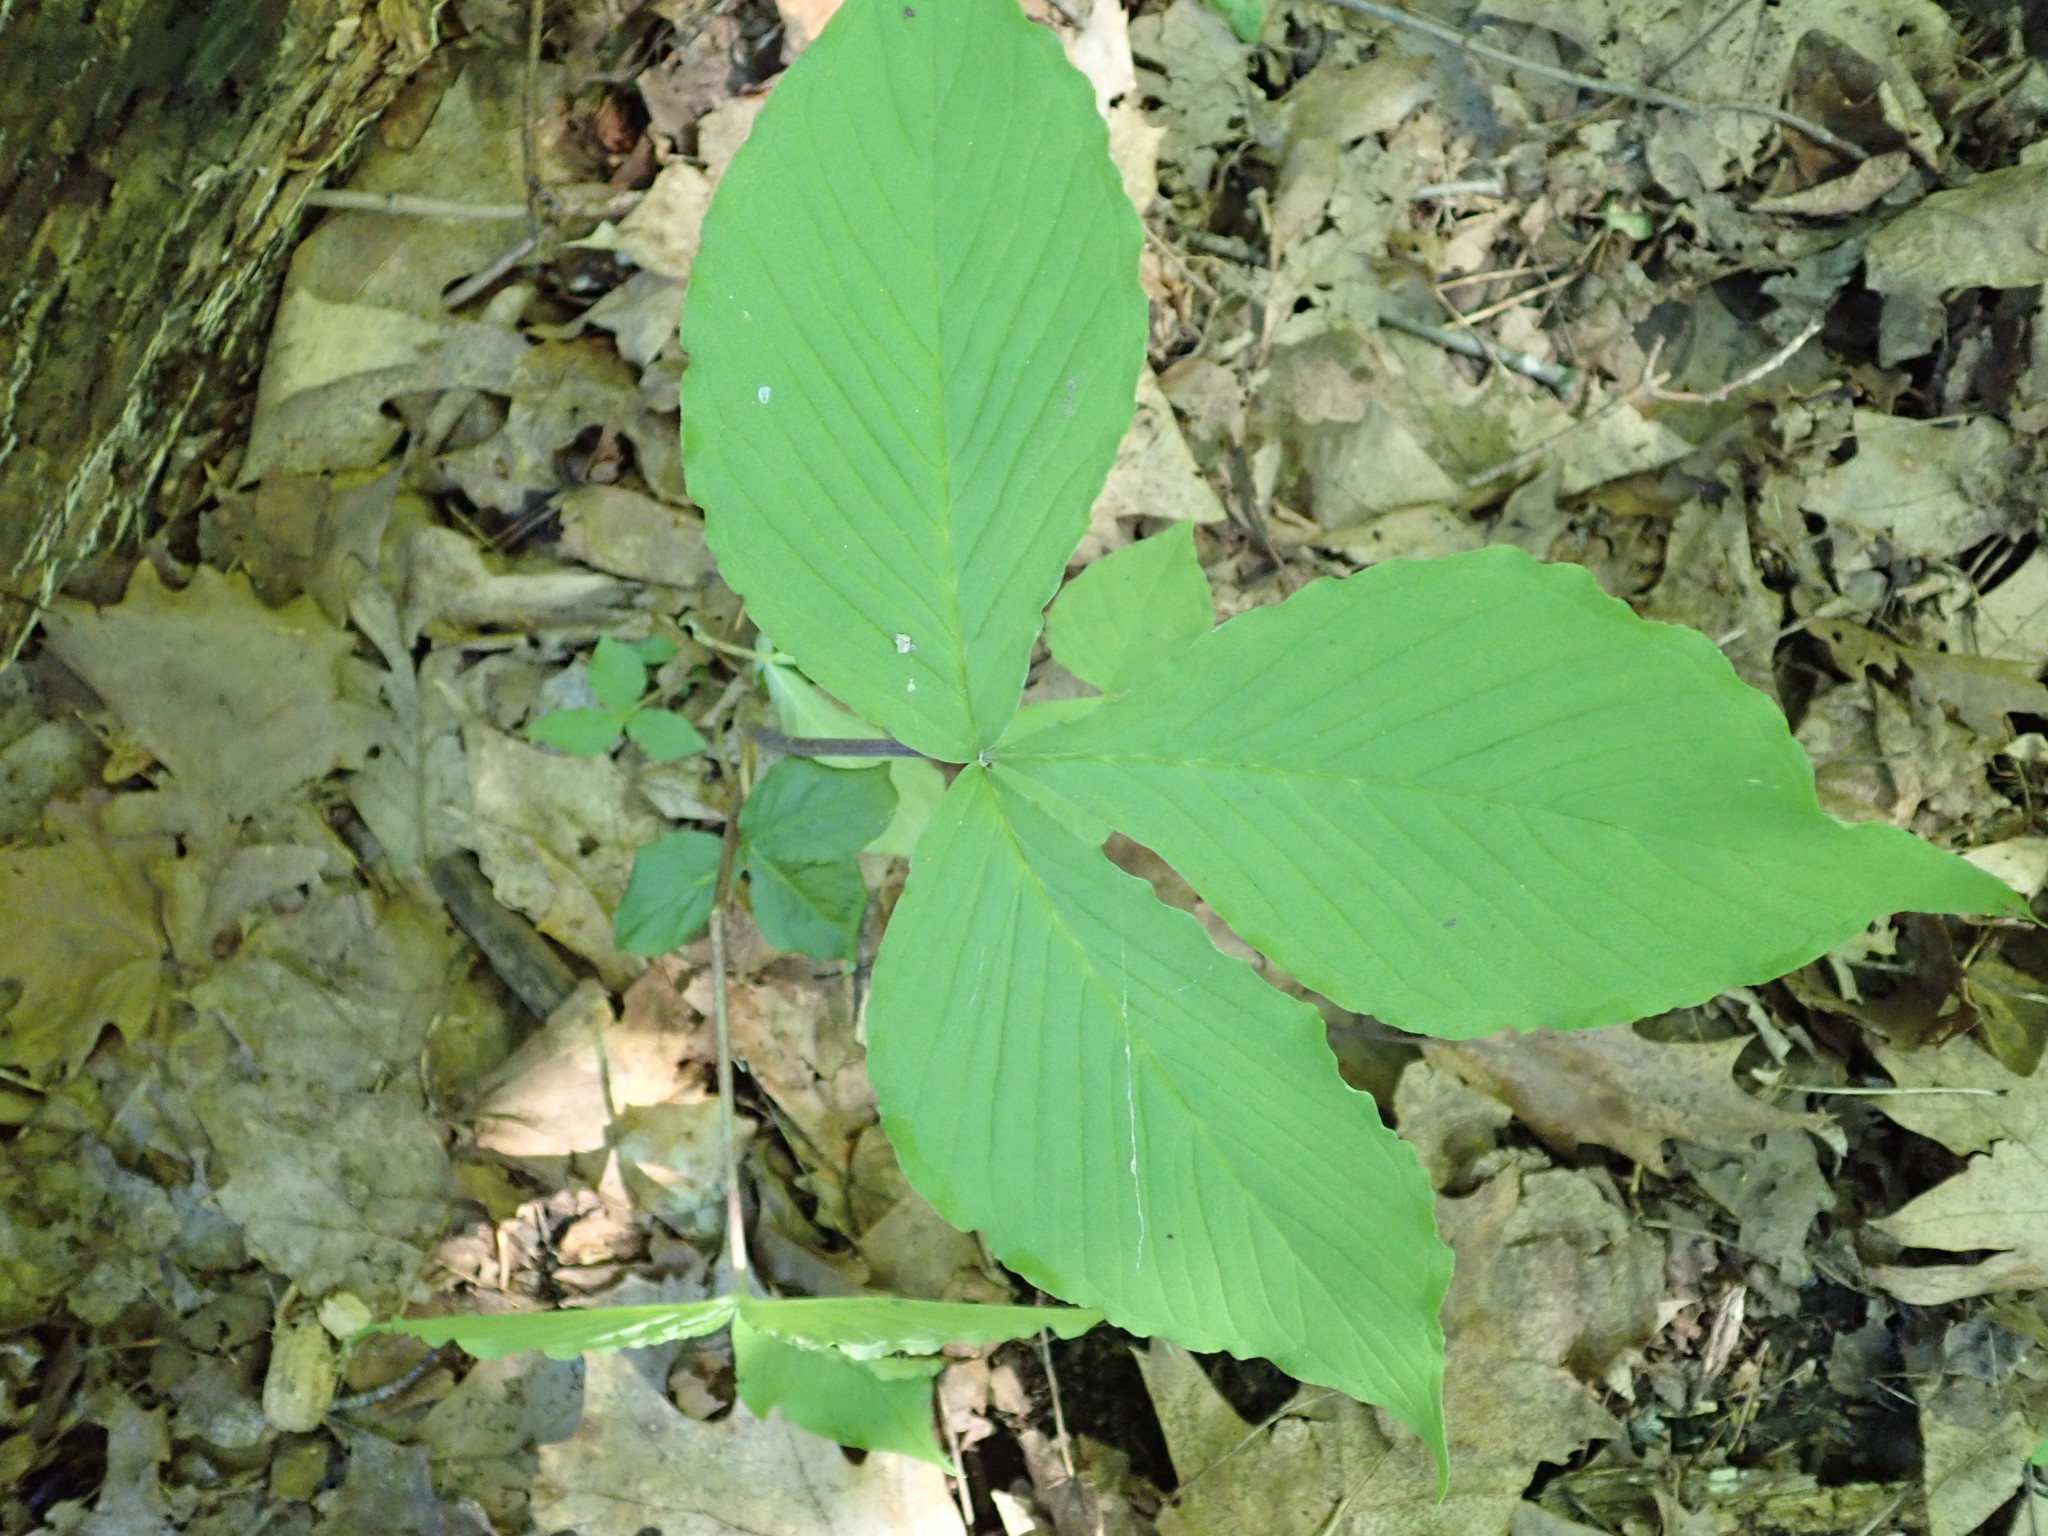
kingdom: Plantae
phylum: Tracheophyta
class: Liliopsida
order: Alismatales
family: Araceae
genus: Arisaema
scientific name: Arisaema triphyllum
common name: Jack-in-the-pulpit
